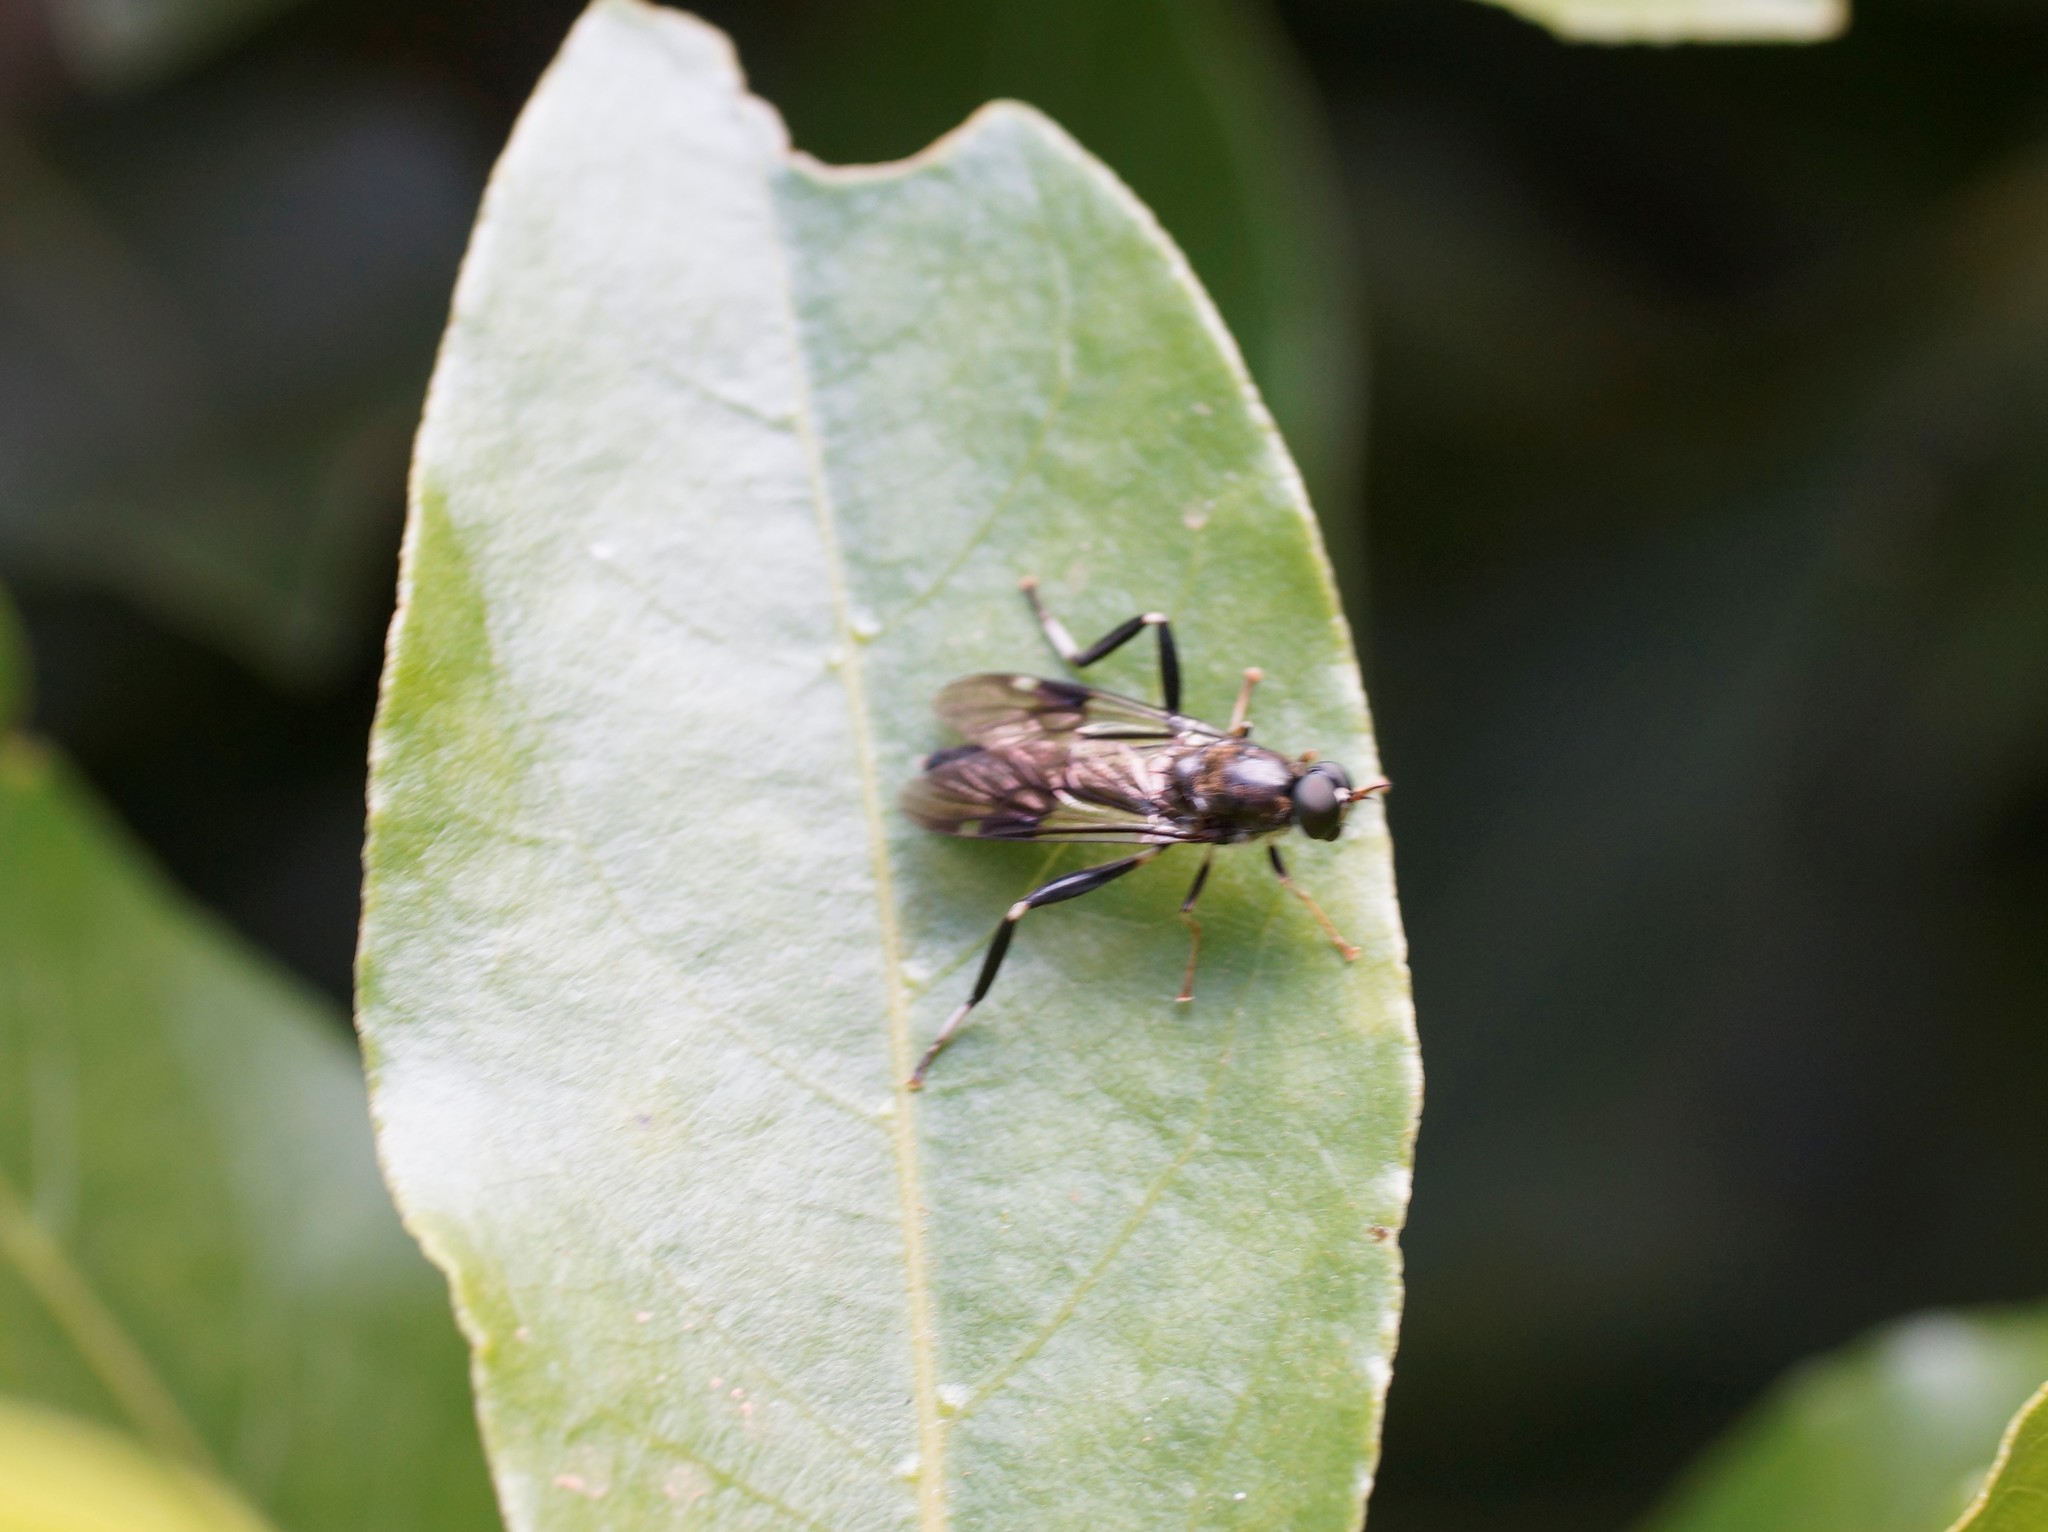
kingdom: Animalia
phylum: Arthropoda
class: Insecta
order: Diptera
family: Stratiomyidae
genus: Exaireta
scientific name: Exaireta spinigera
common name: Blue soldier fly
